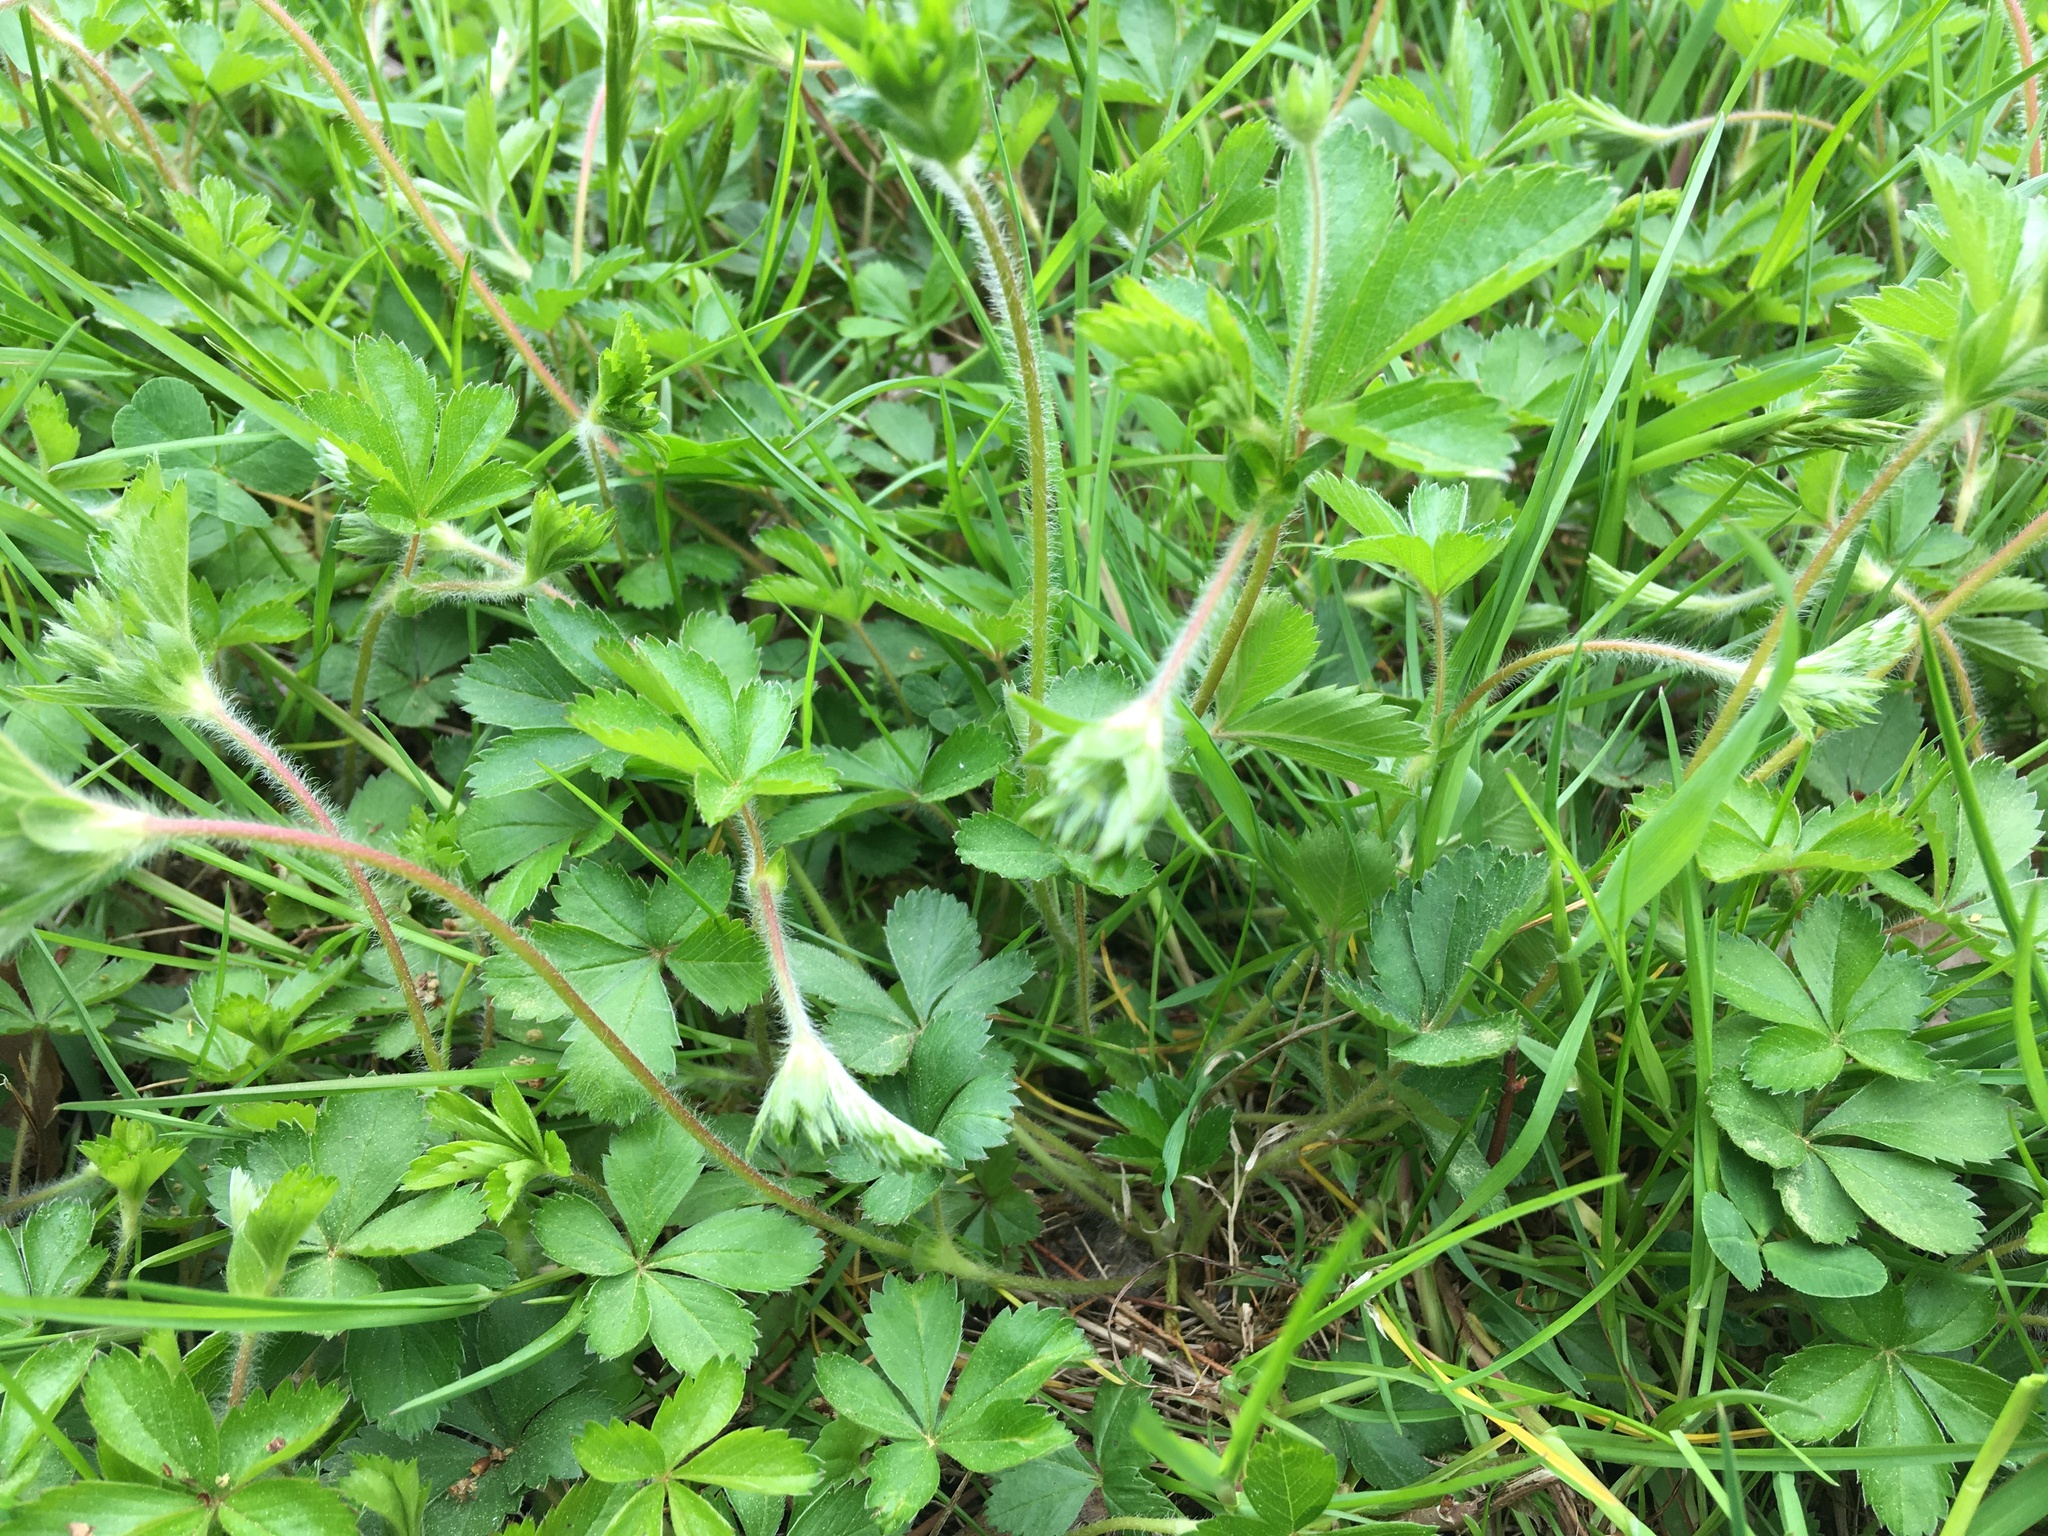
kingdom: Plantae
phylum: Tracheophyta
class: Magnoliopsida
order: Rosales
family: Rosaceae
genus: Potentilla
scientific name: Potentilla simplex
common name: Old field cinquefoil
